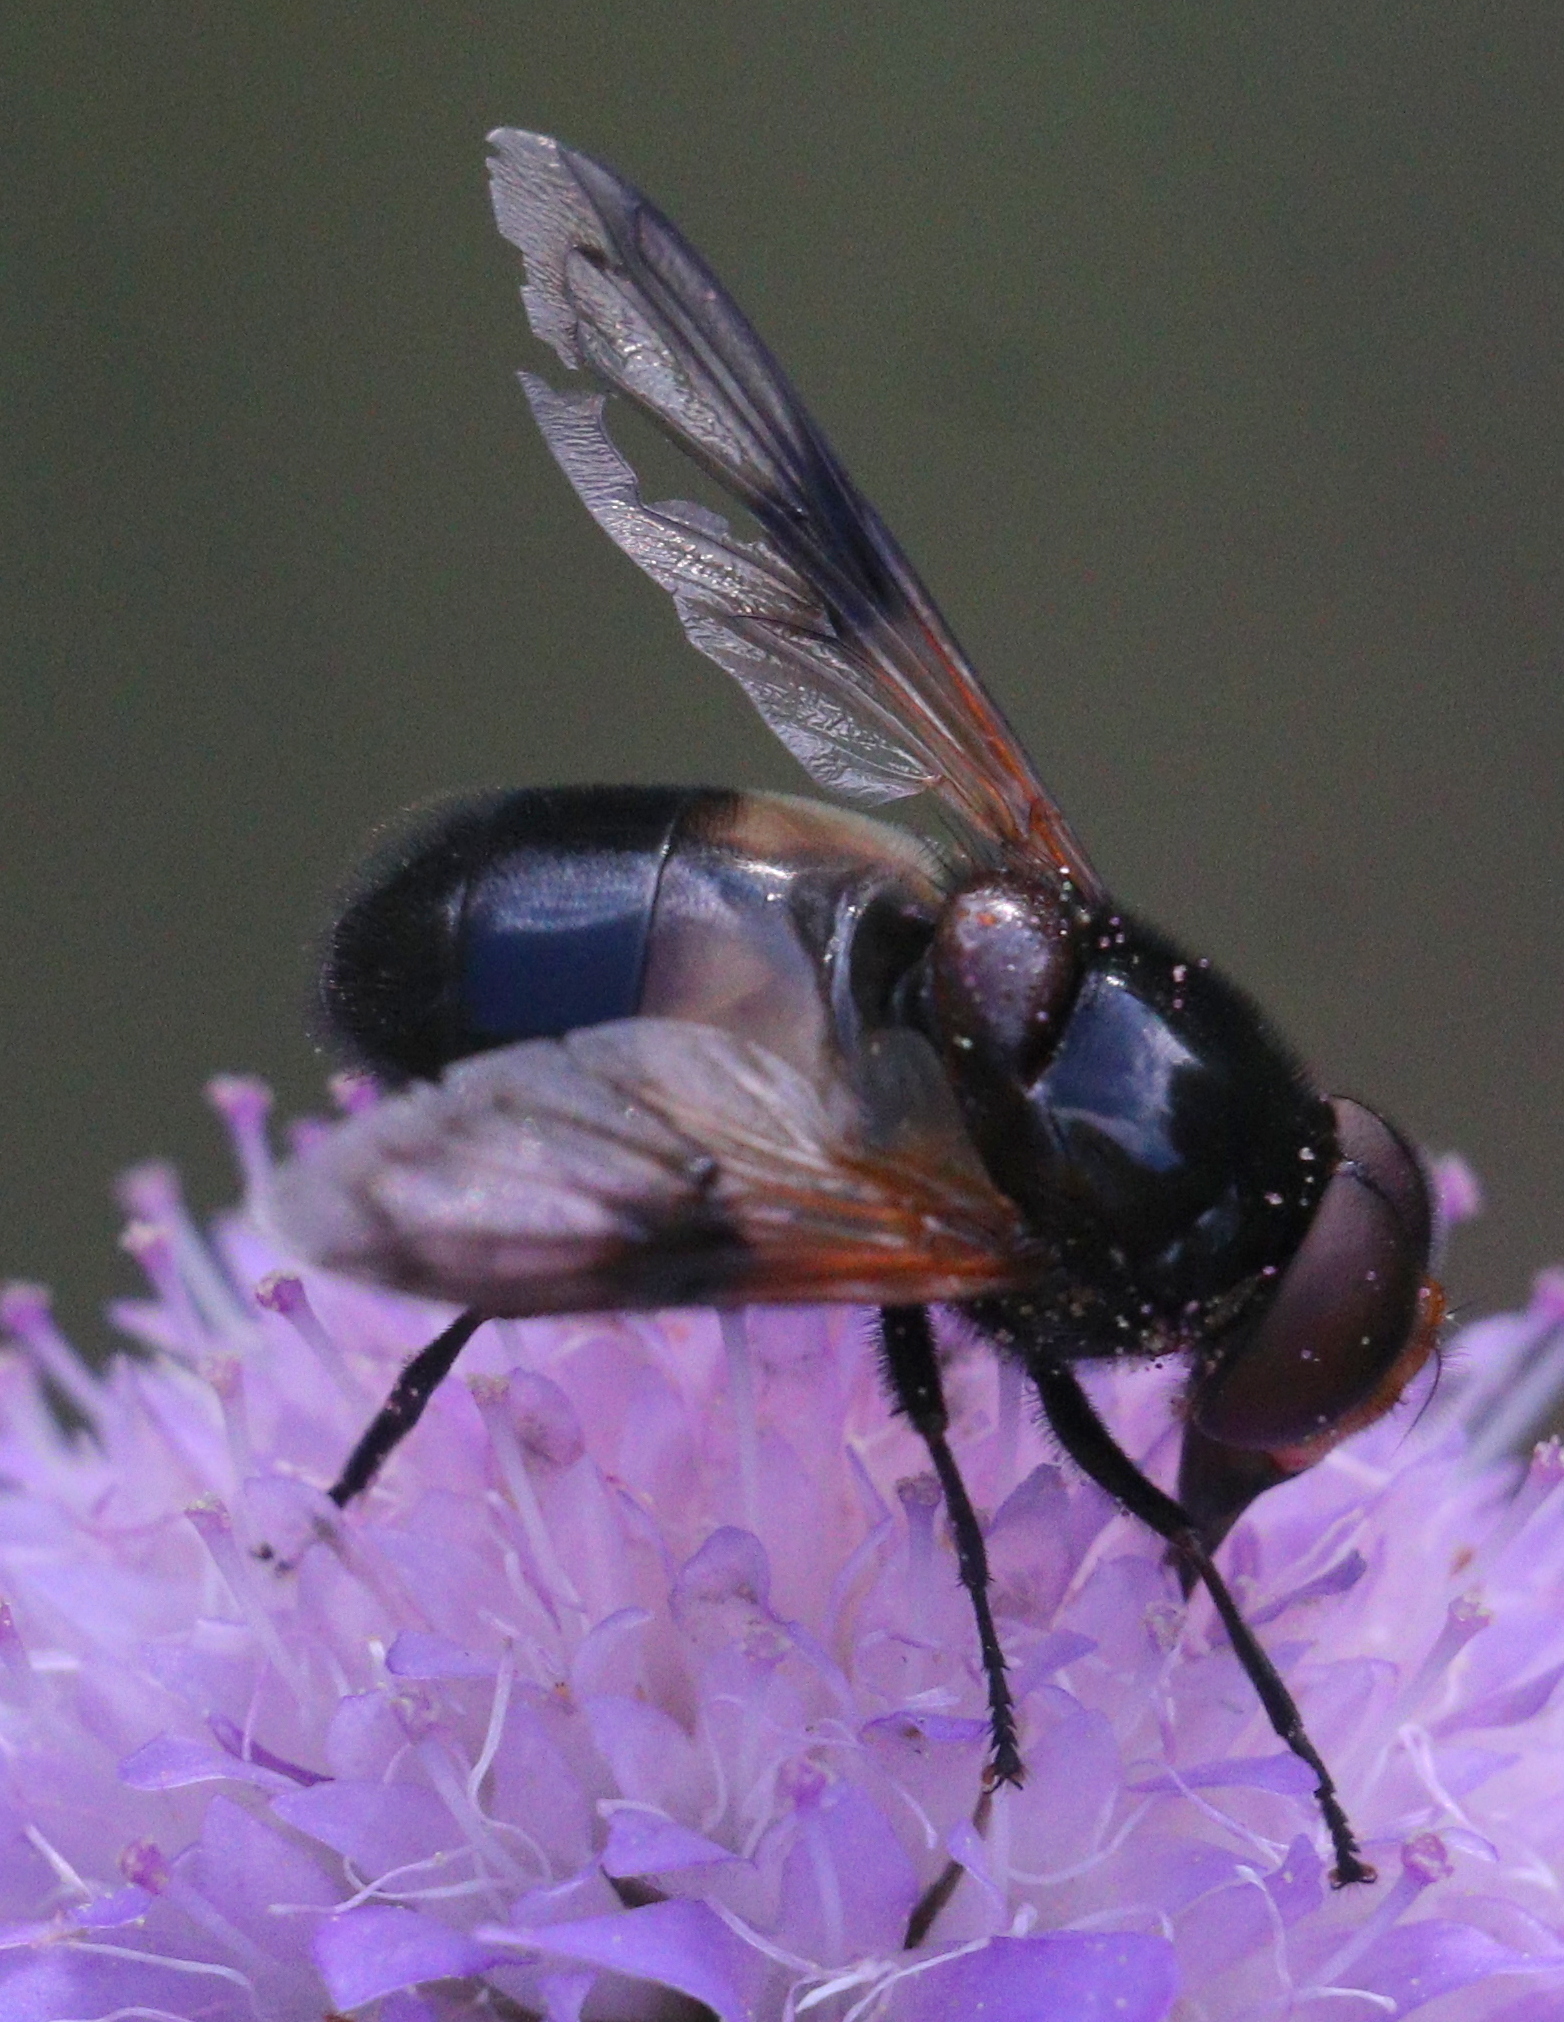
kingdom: Animalia
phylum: Arthropoda
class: Insecta
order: Diptera
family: Syrphidae
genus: Volucella
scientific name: Volucella pellucens
